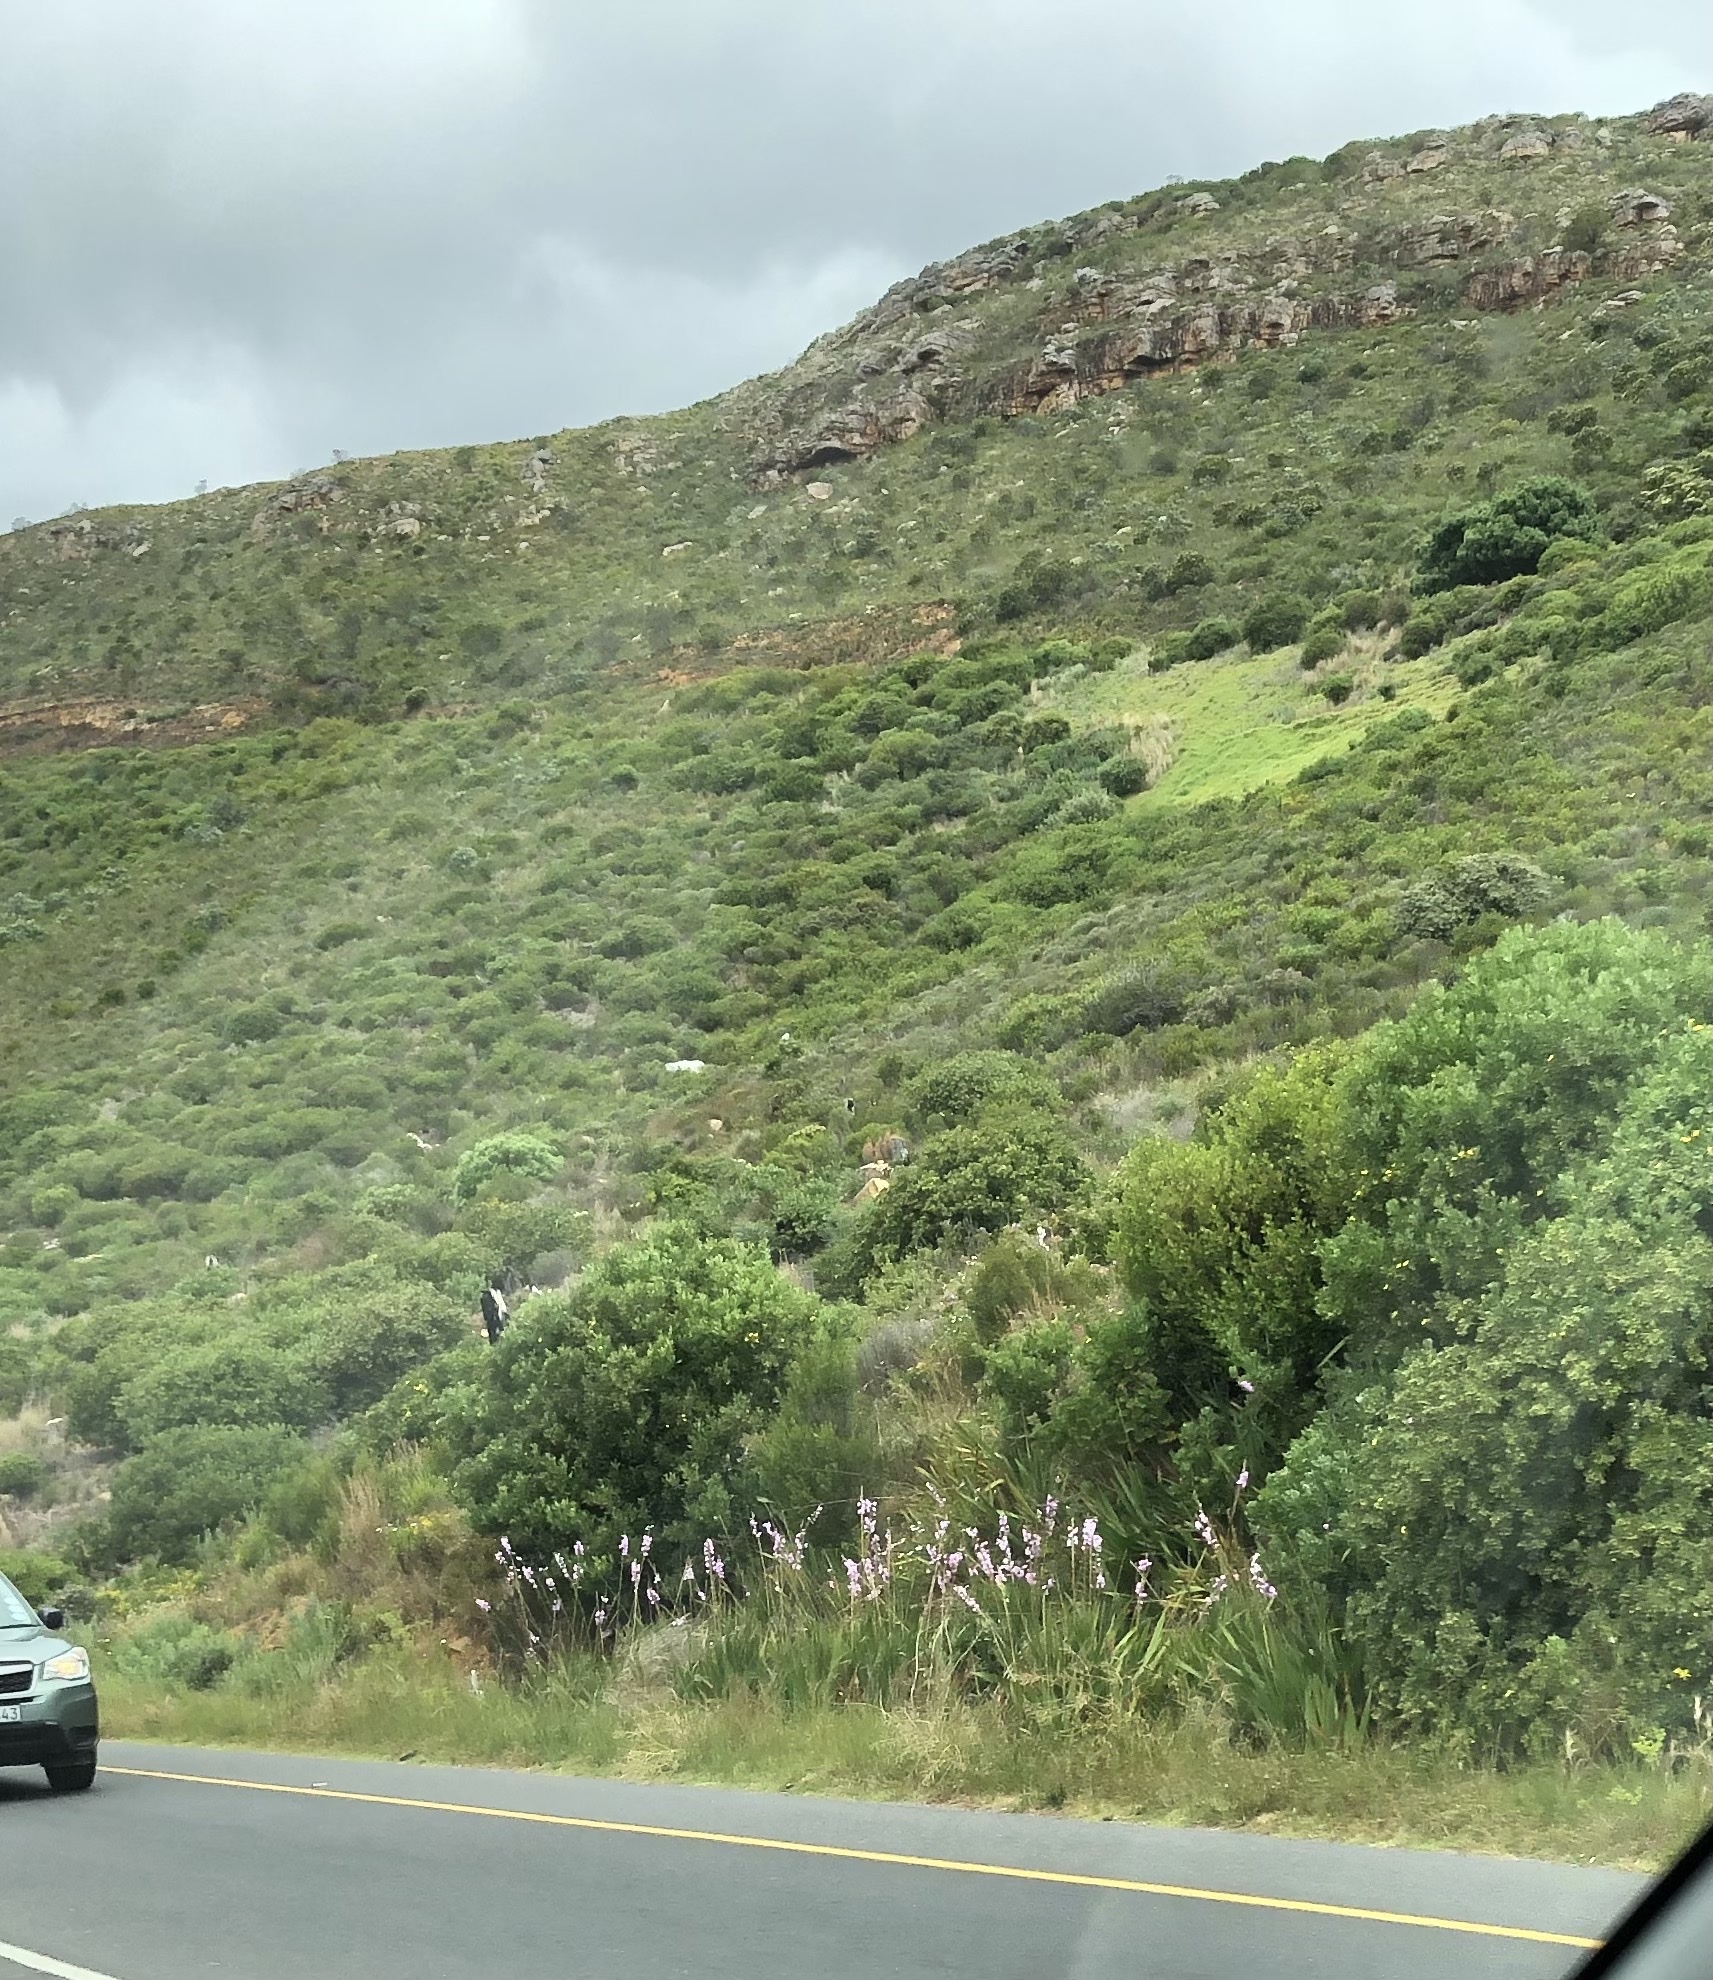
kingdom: Plantae
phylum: Tracheophyta
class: Liliopsida
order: Asparagales
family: Iridaceae
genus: Watsonia
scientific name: Watsonia marginata
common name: Fragrant bugle-lily
